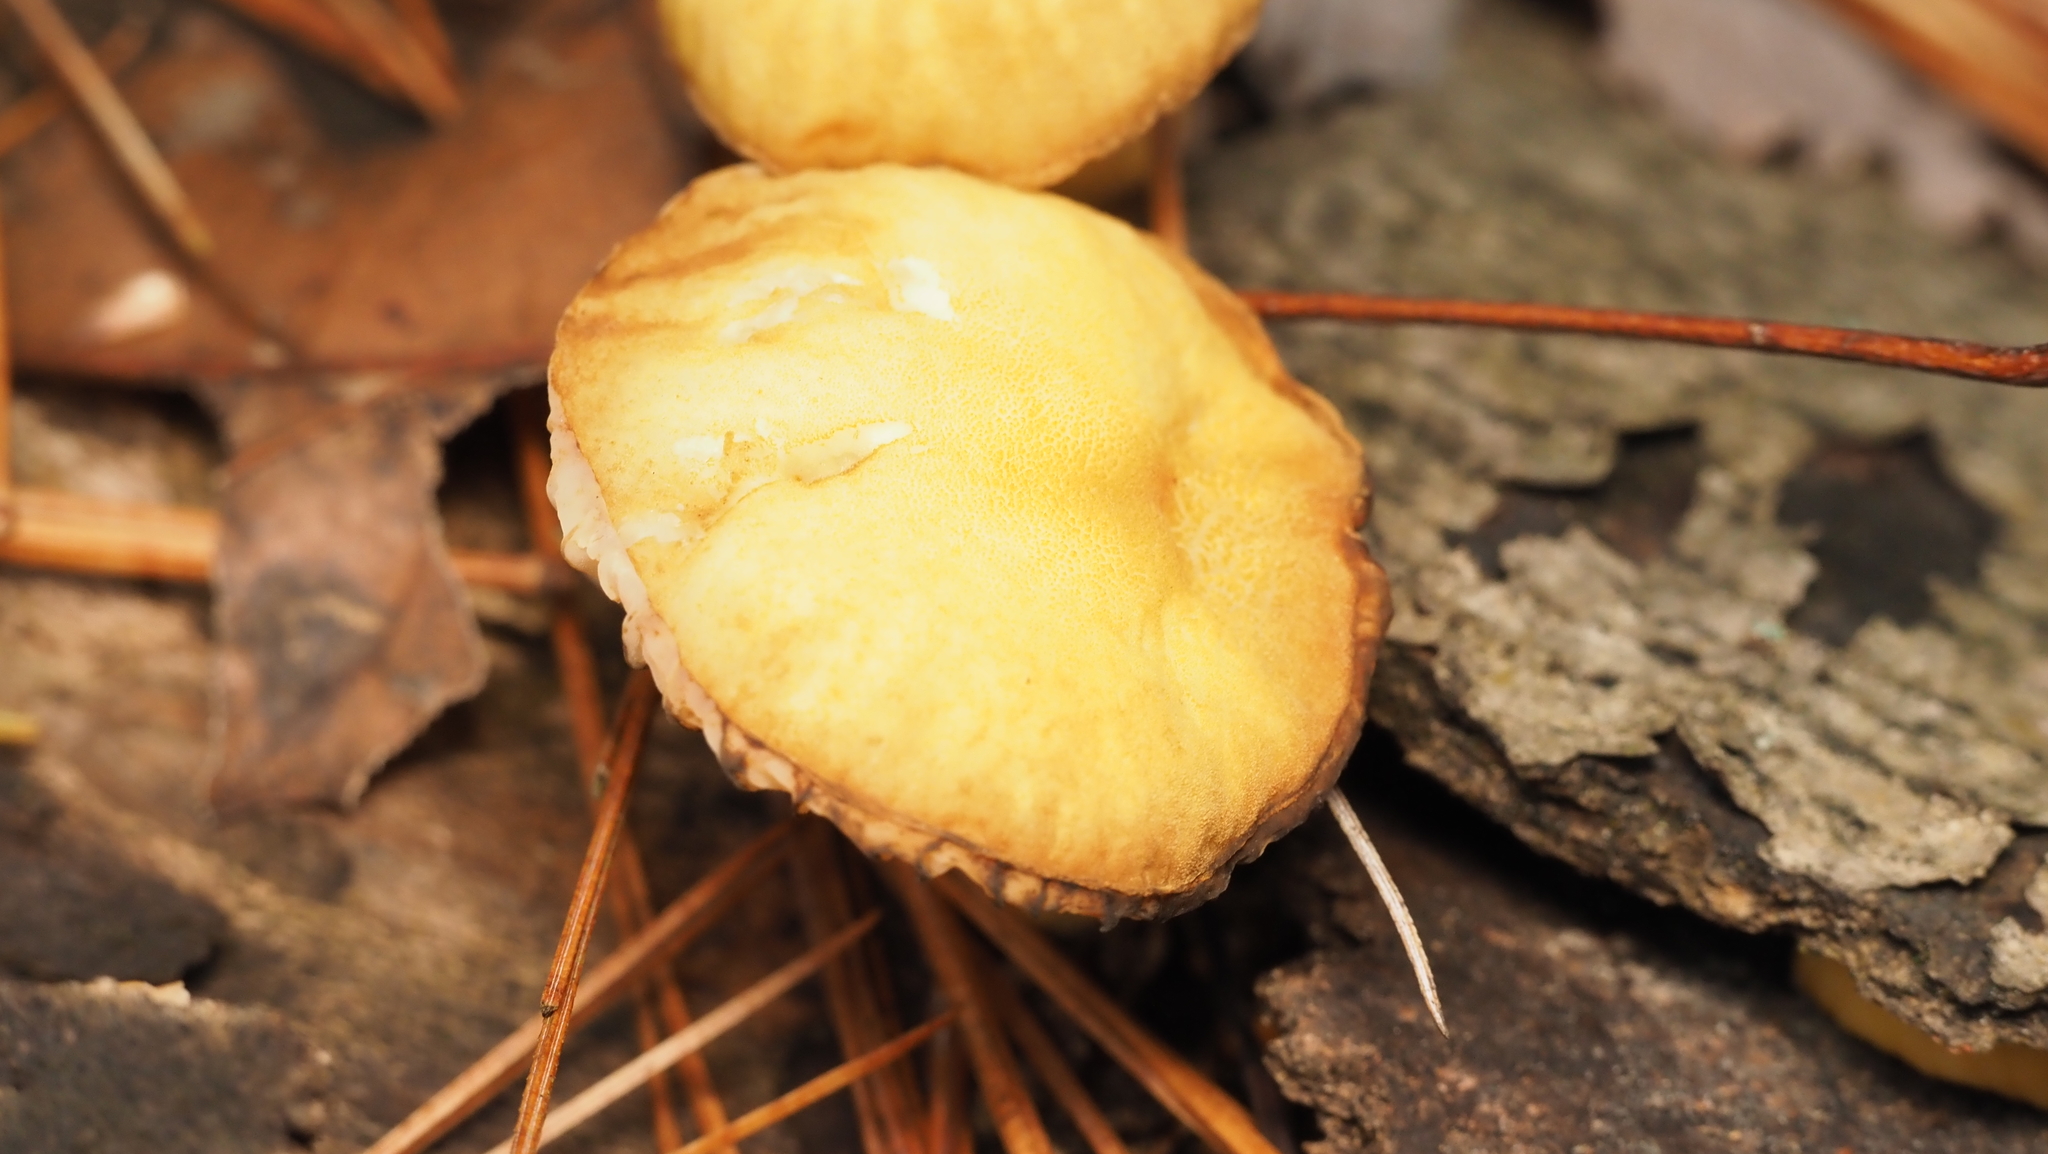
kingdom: Fungi
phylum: Basidiomycota
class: Agaricomycetes
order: Agaricales
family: Physalacriaceae
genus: Cyptotrama
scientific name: Cyptotrama asprata
